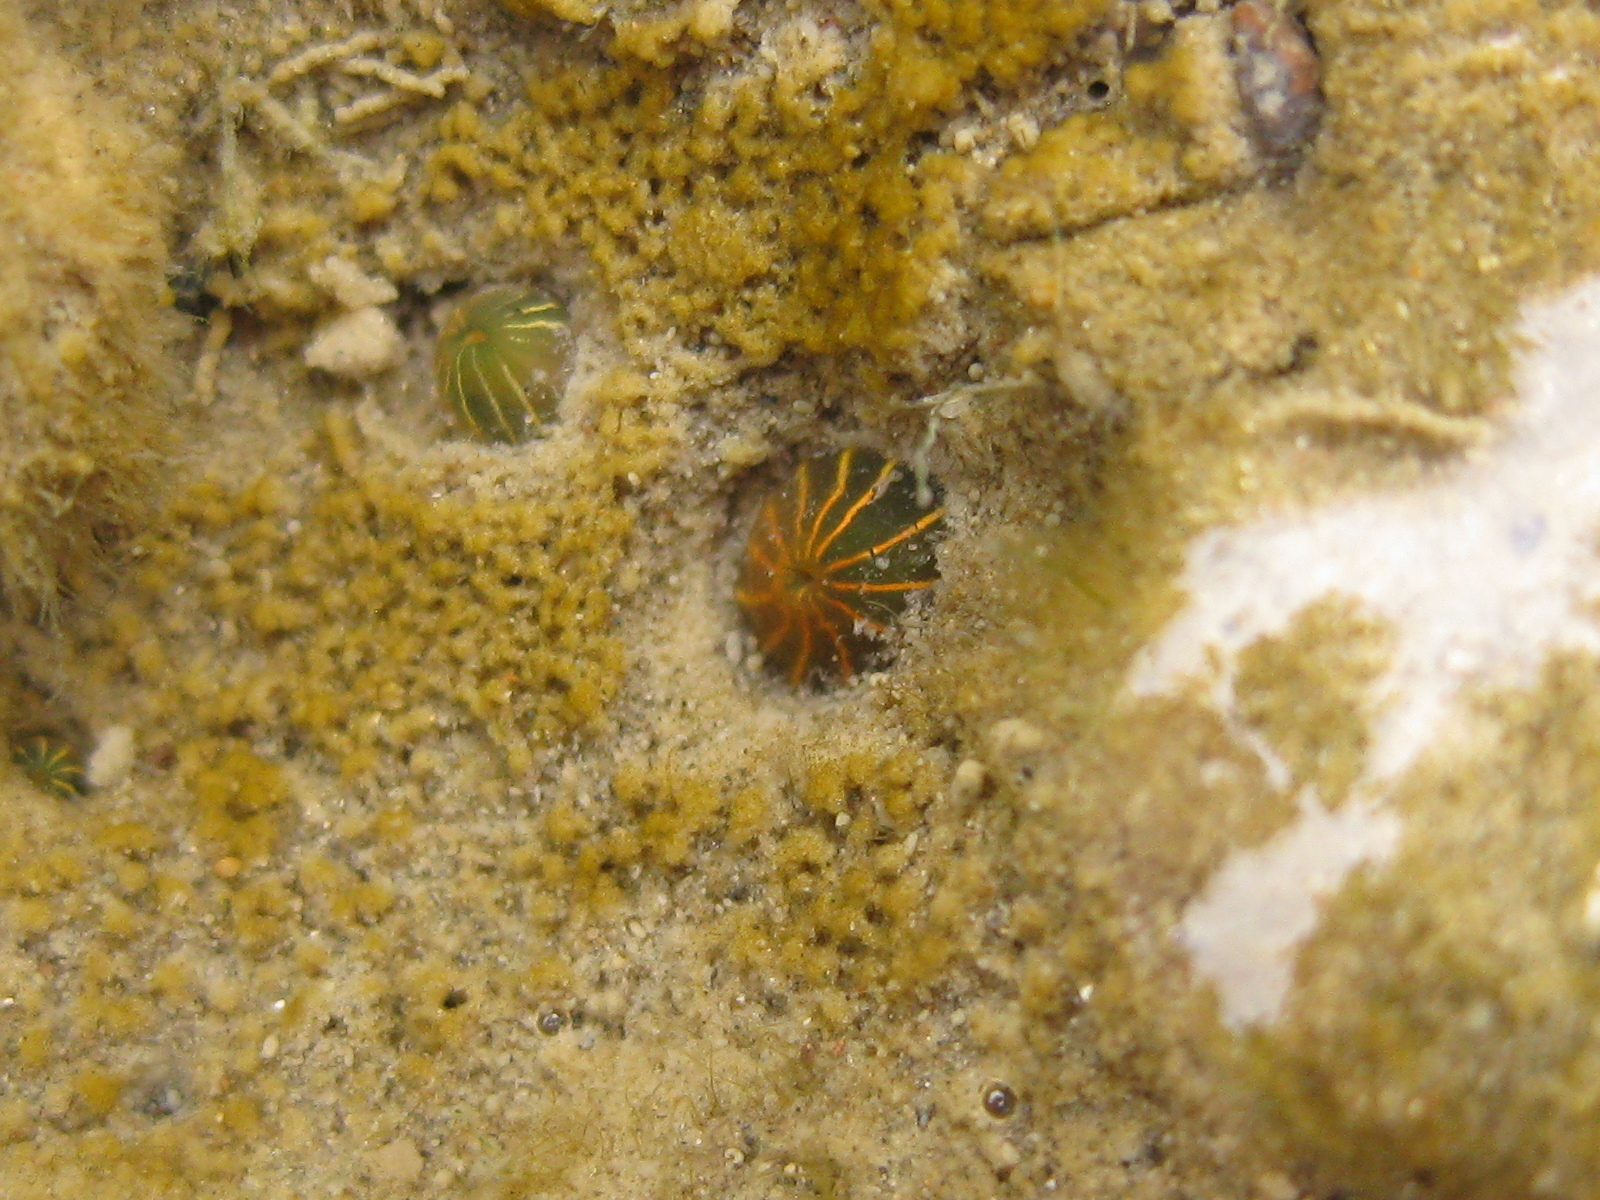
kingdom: Animalia
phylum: Cnidaria
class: Anthozoa
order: Actiniaria
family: Diadumenidae
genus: Diadumene
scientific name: Diadumene lineata
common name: Orange-striped anemone
